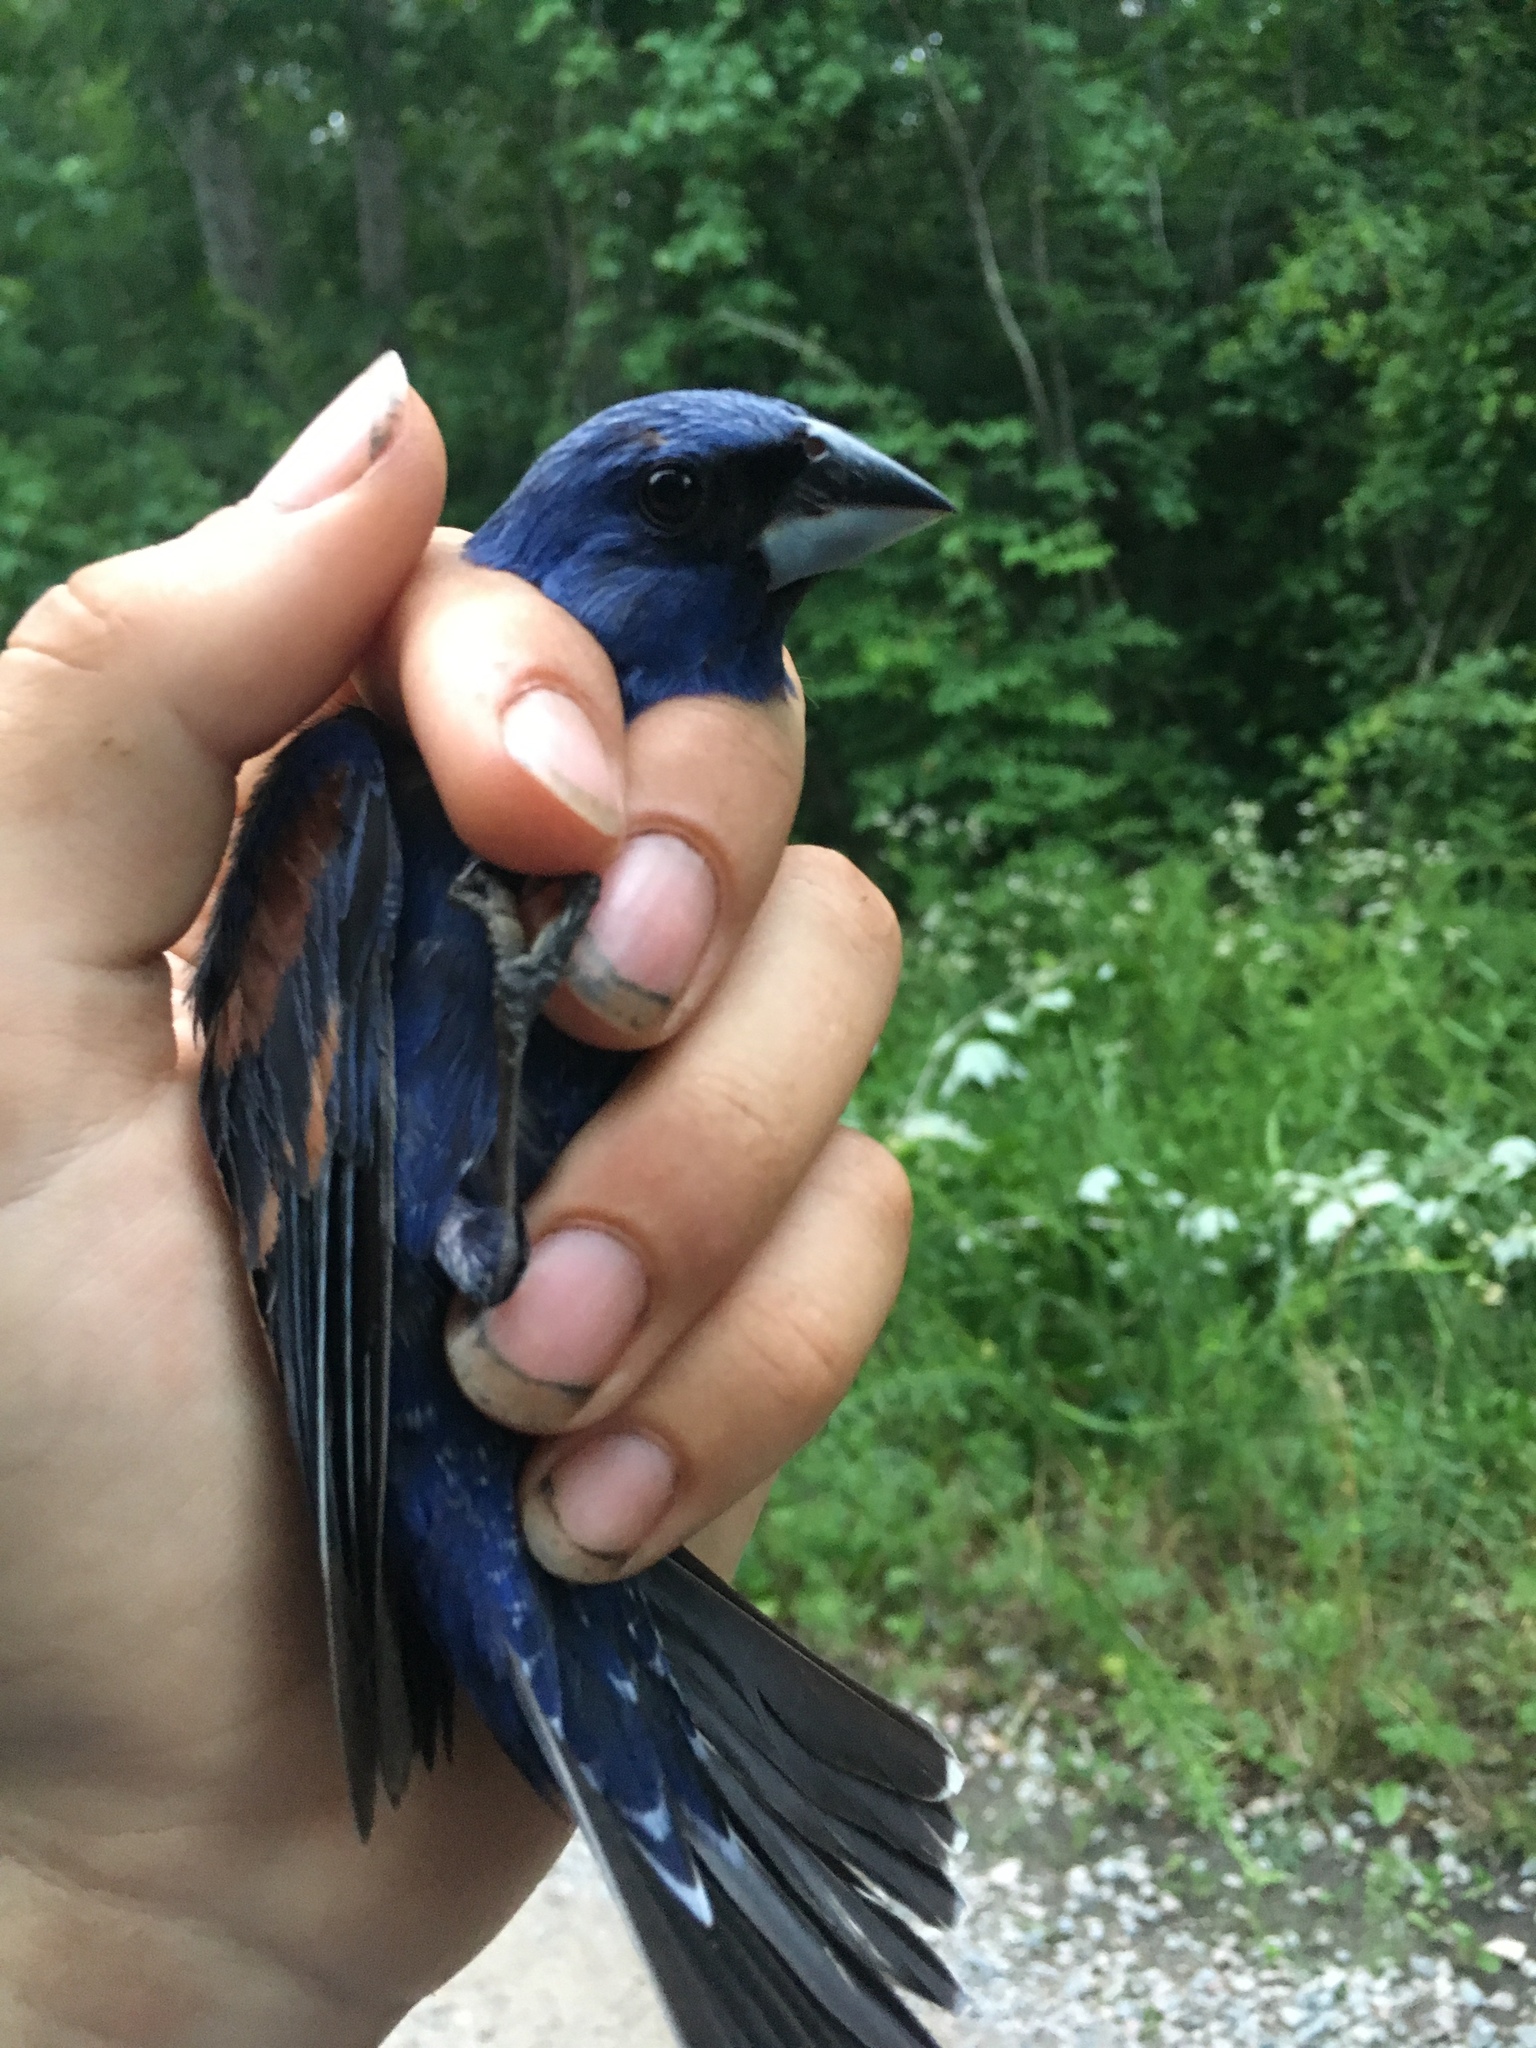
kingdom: Animalia
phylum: Chordata
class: Aves
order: Passeriformes
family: Cardinalidae
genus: Passerina
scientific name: Passerina caerulea
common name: Blue grosbeak
